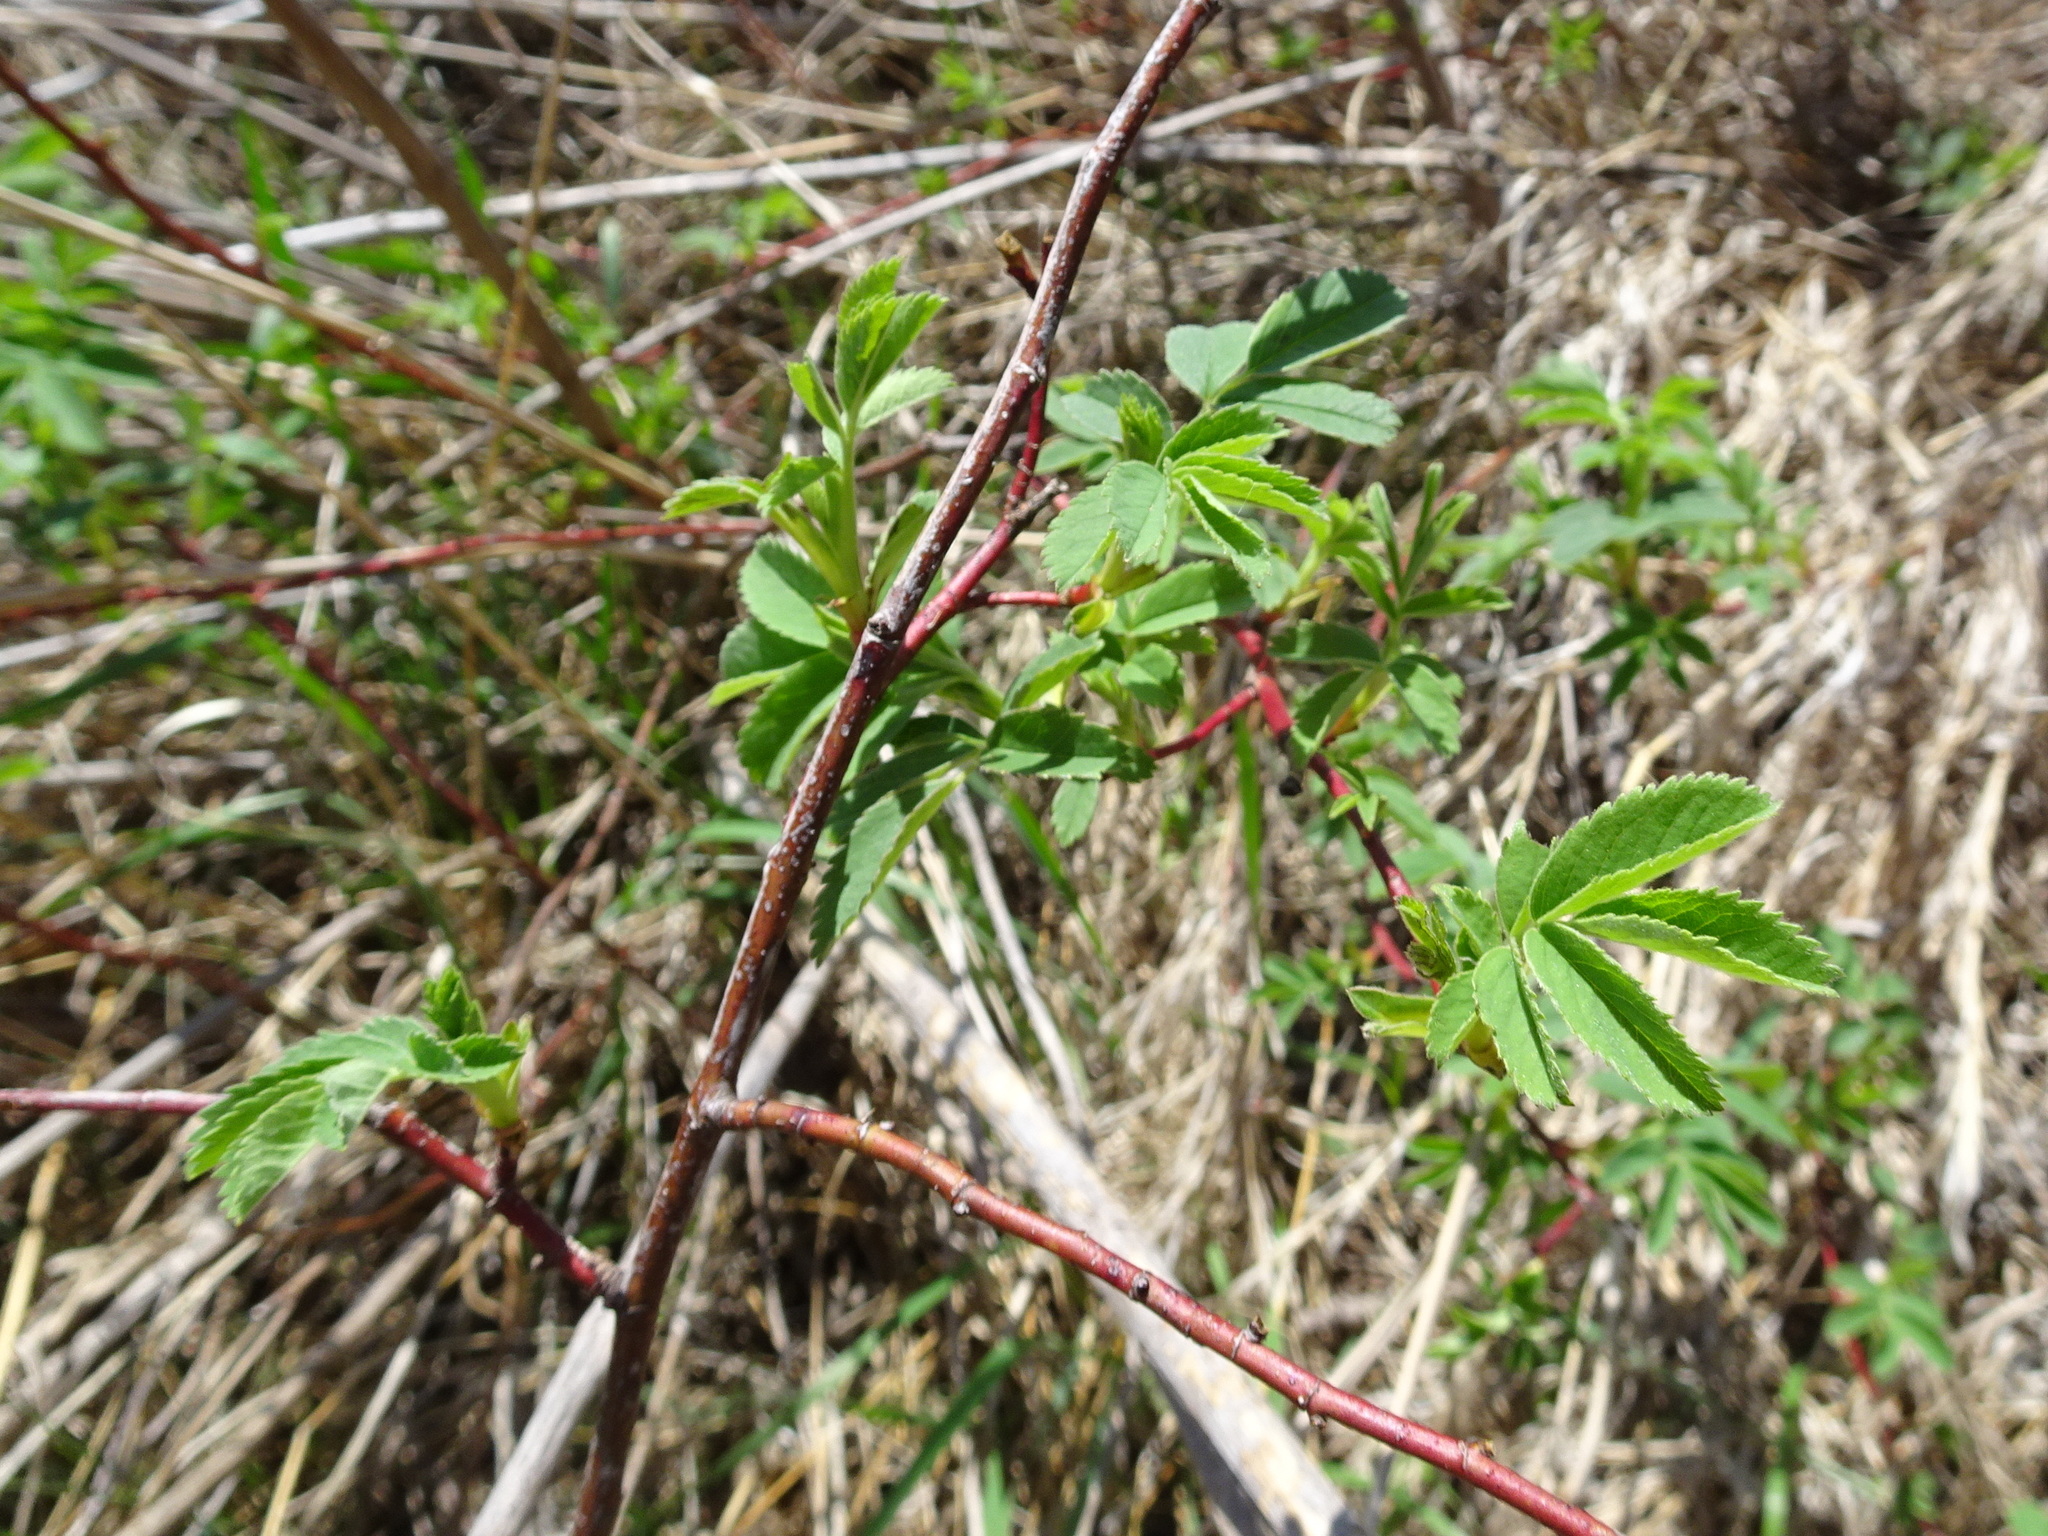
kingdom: Plantae
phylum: Tracheophyta
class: Magnoliopsida
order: Rosales
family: Rosaceae
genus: Rosa
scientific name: Rosa arkansana
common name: Prairie rose
